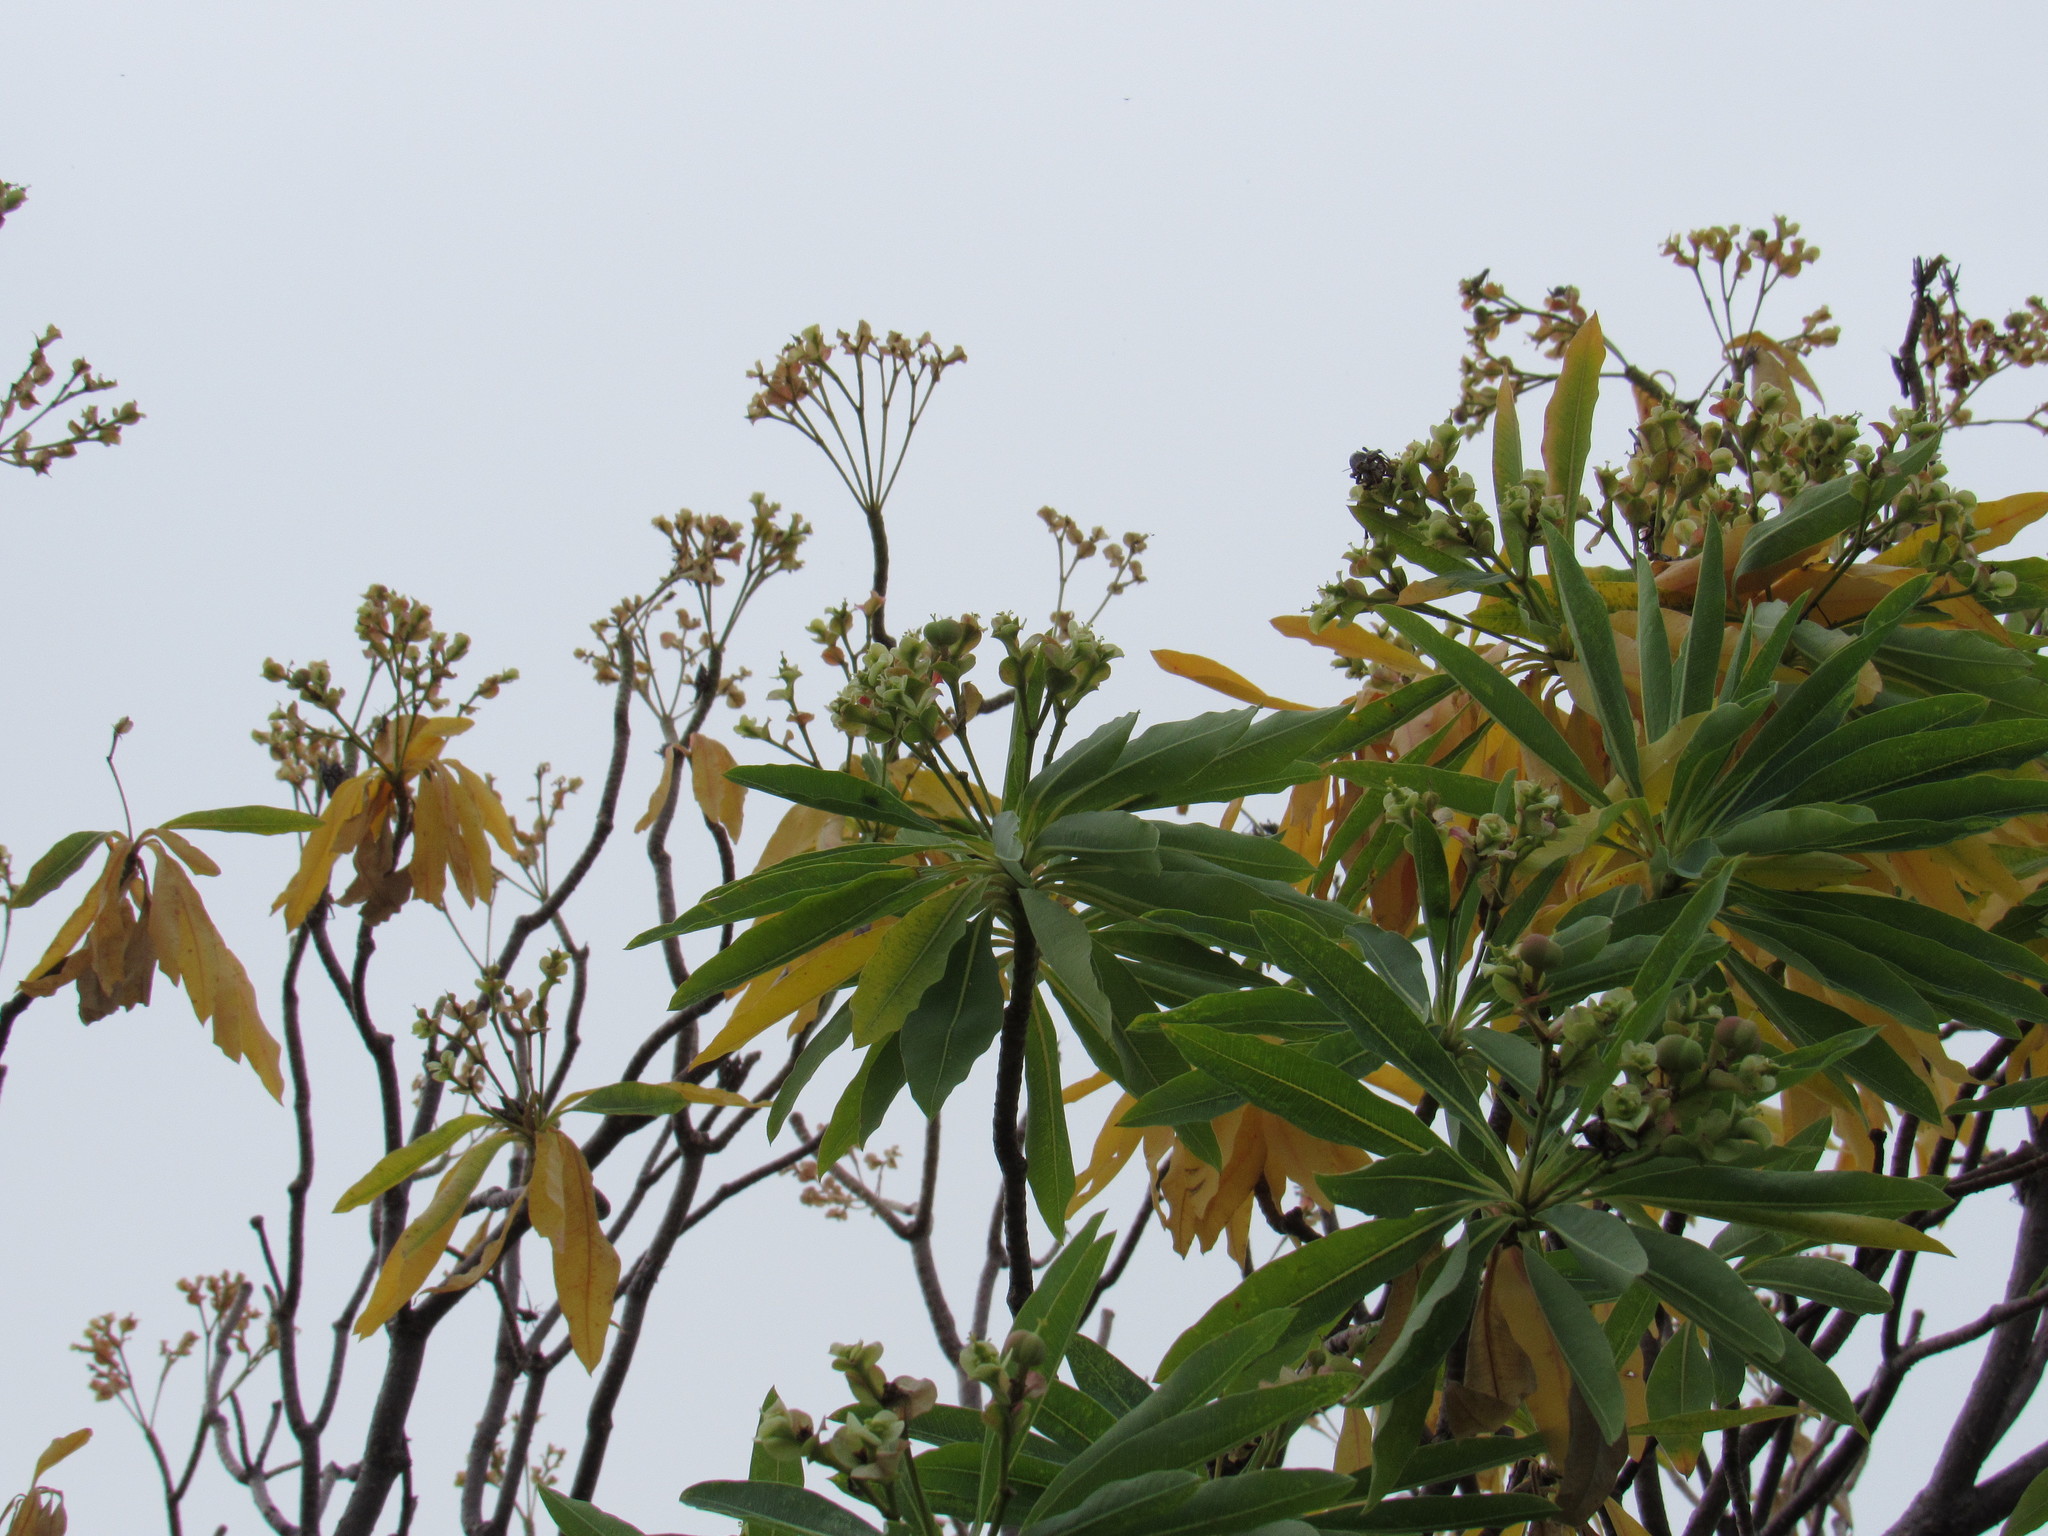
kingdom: Plantae
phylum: Tracheophyta
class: Magnoliopsida
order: Malpighiales
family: Euphorbiaceae
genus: Euphorbia
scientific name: Euphorbia calyculata
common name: Chupire
